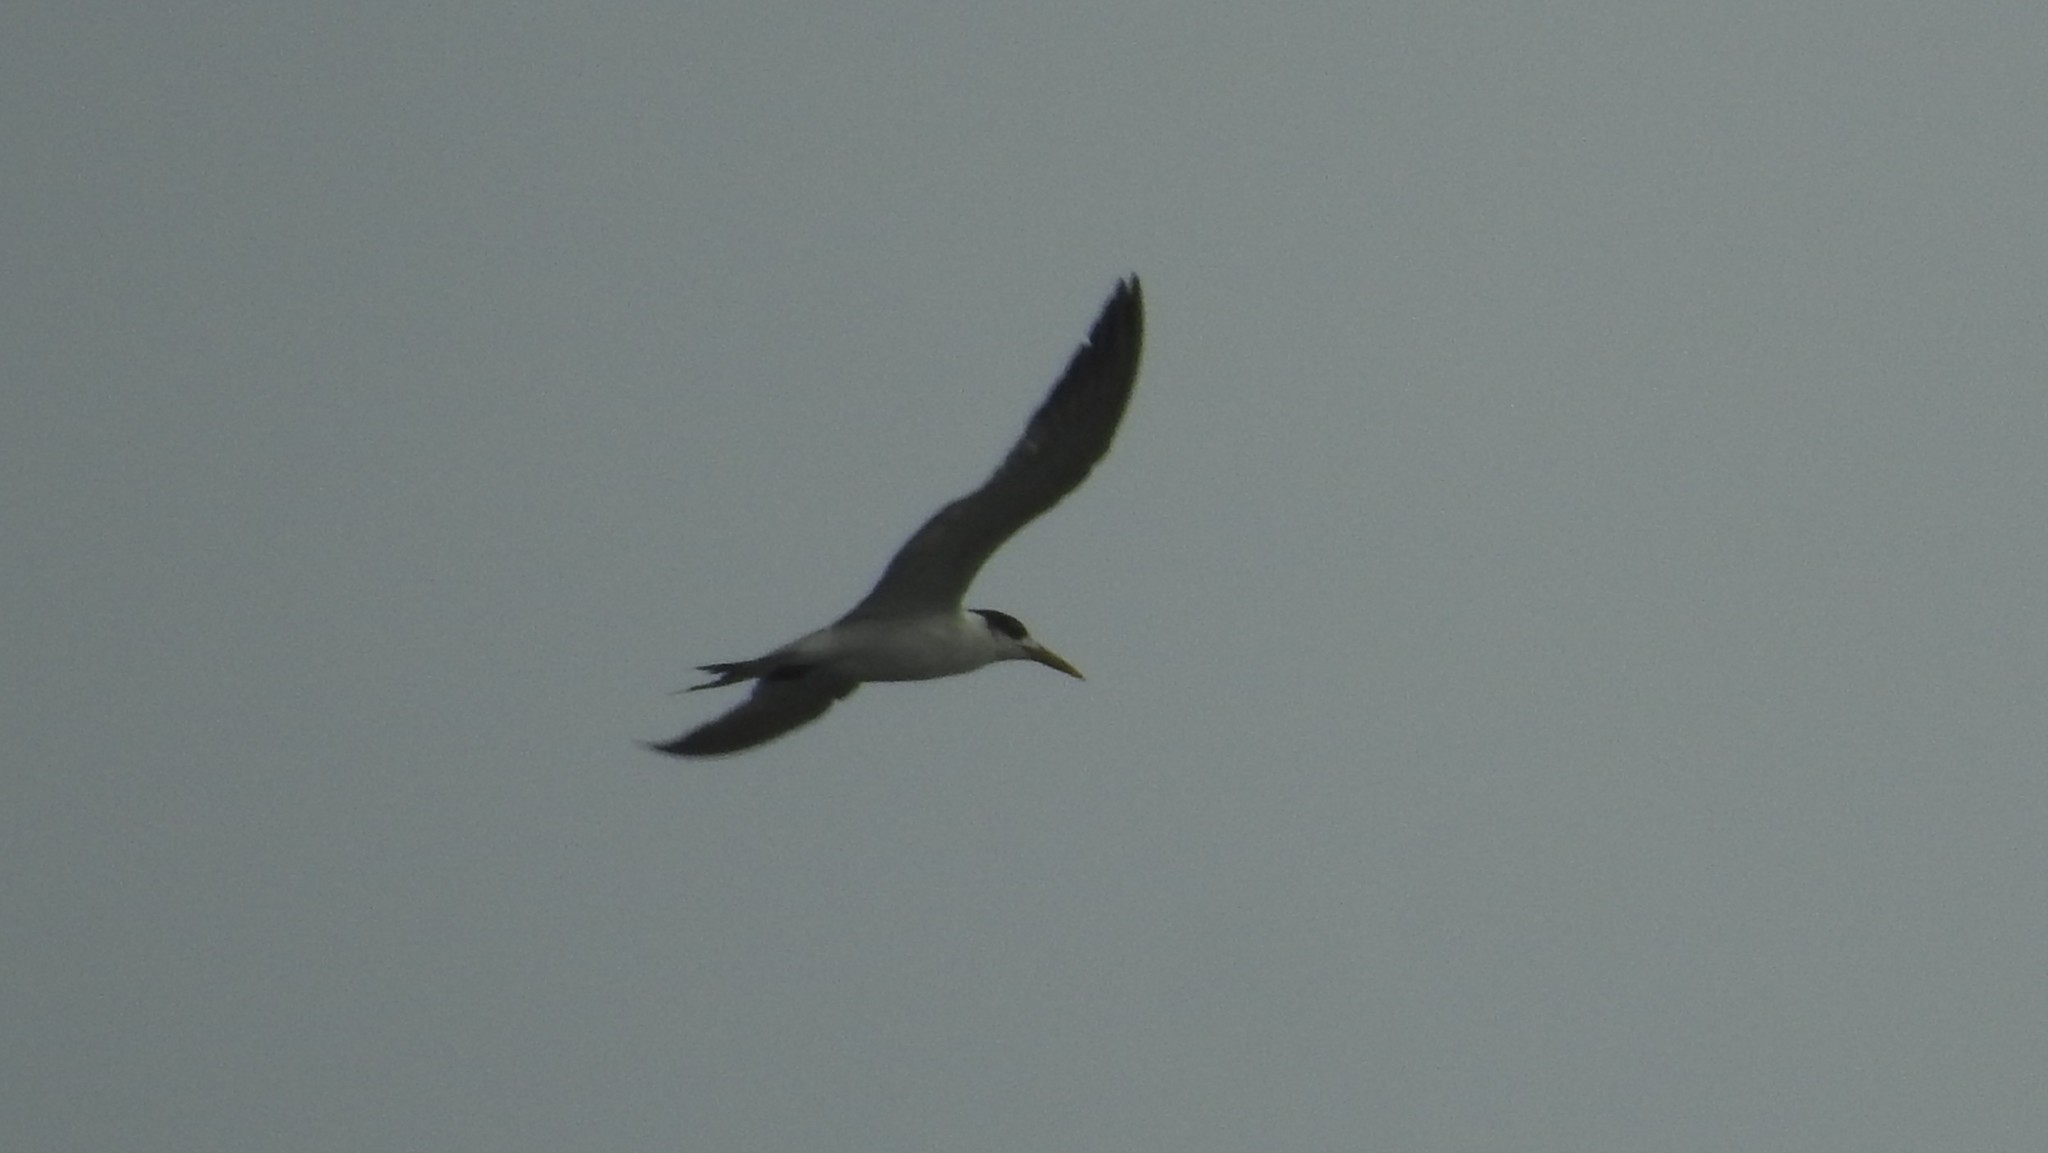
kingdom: Animalia
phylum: Chordata
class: Aves
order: Charadriiformes
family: Laridae
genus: Thalasseus
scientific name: Thalasseus bergii
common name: Greater crested tern
